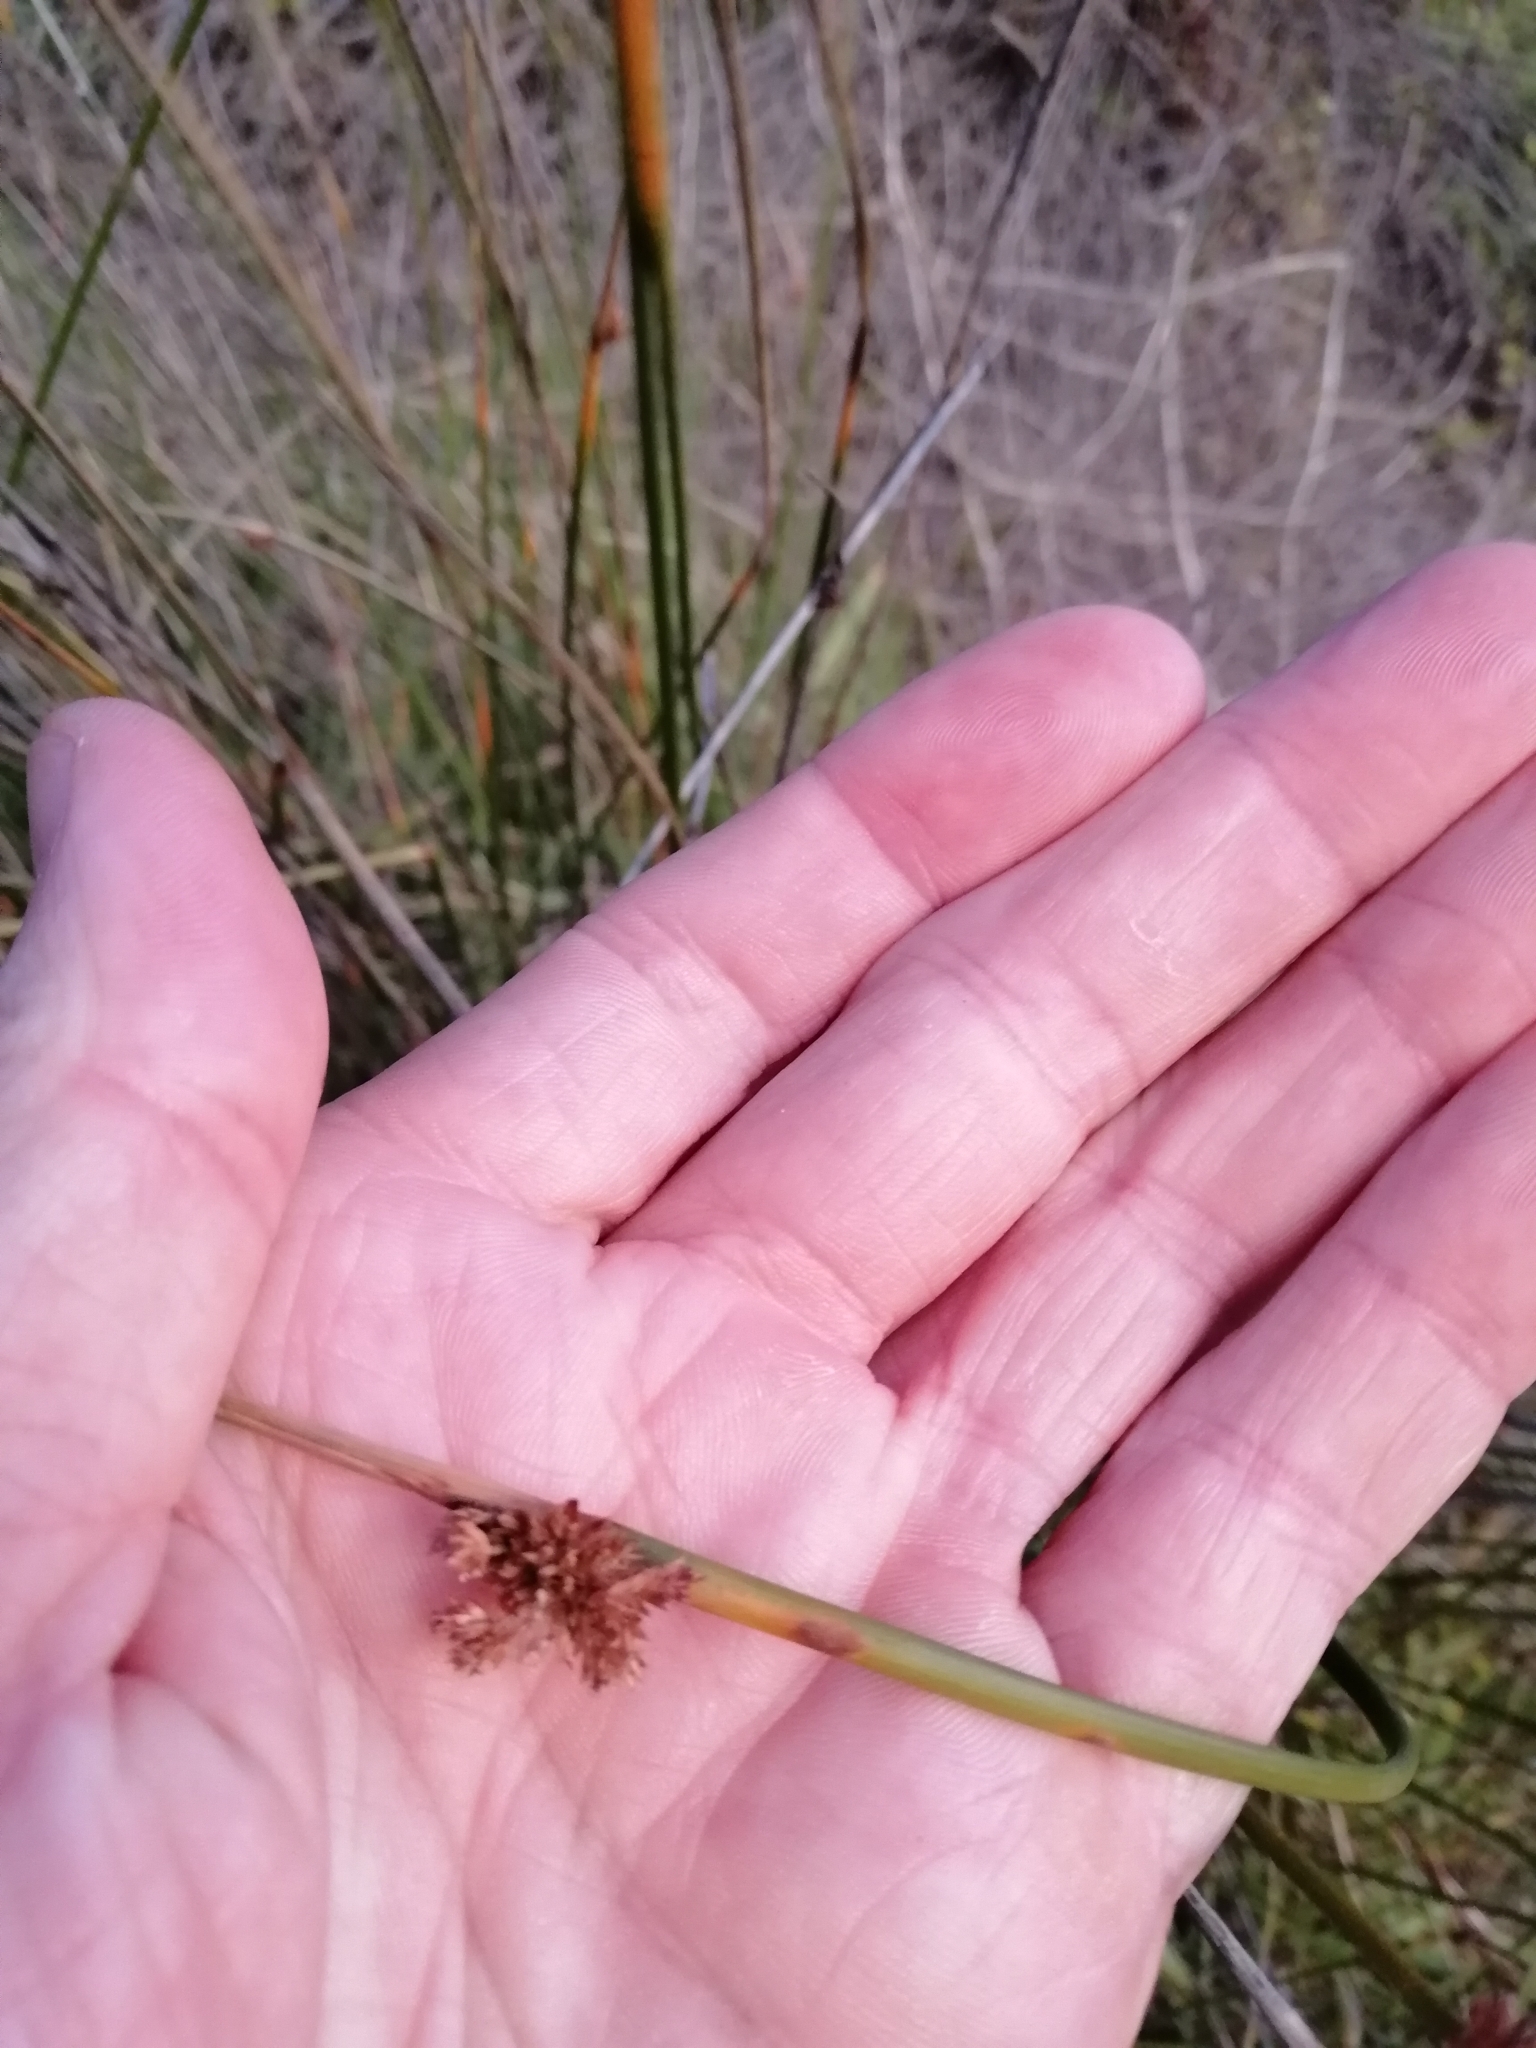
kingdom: Plantae
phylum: Tracheophyta
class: Liliopsida
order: Poales
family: Cyperaceae
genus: Ficinia
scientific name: Ficinia nodosa
